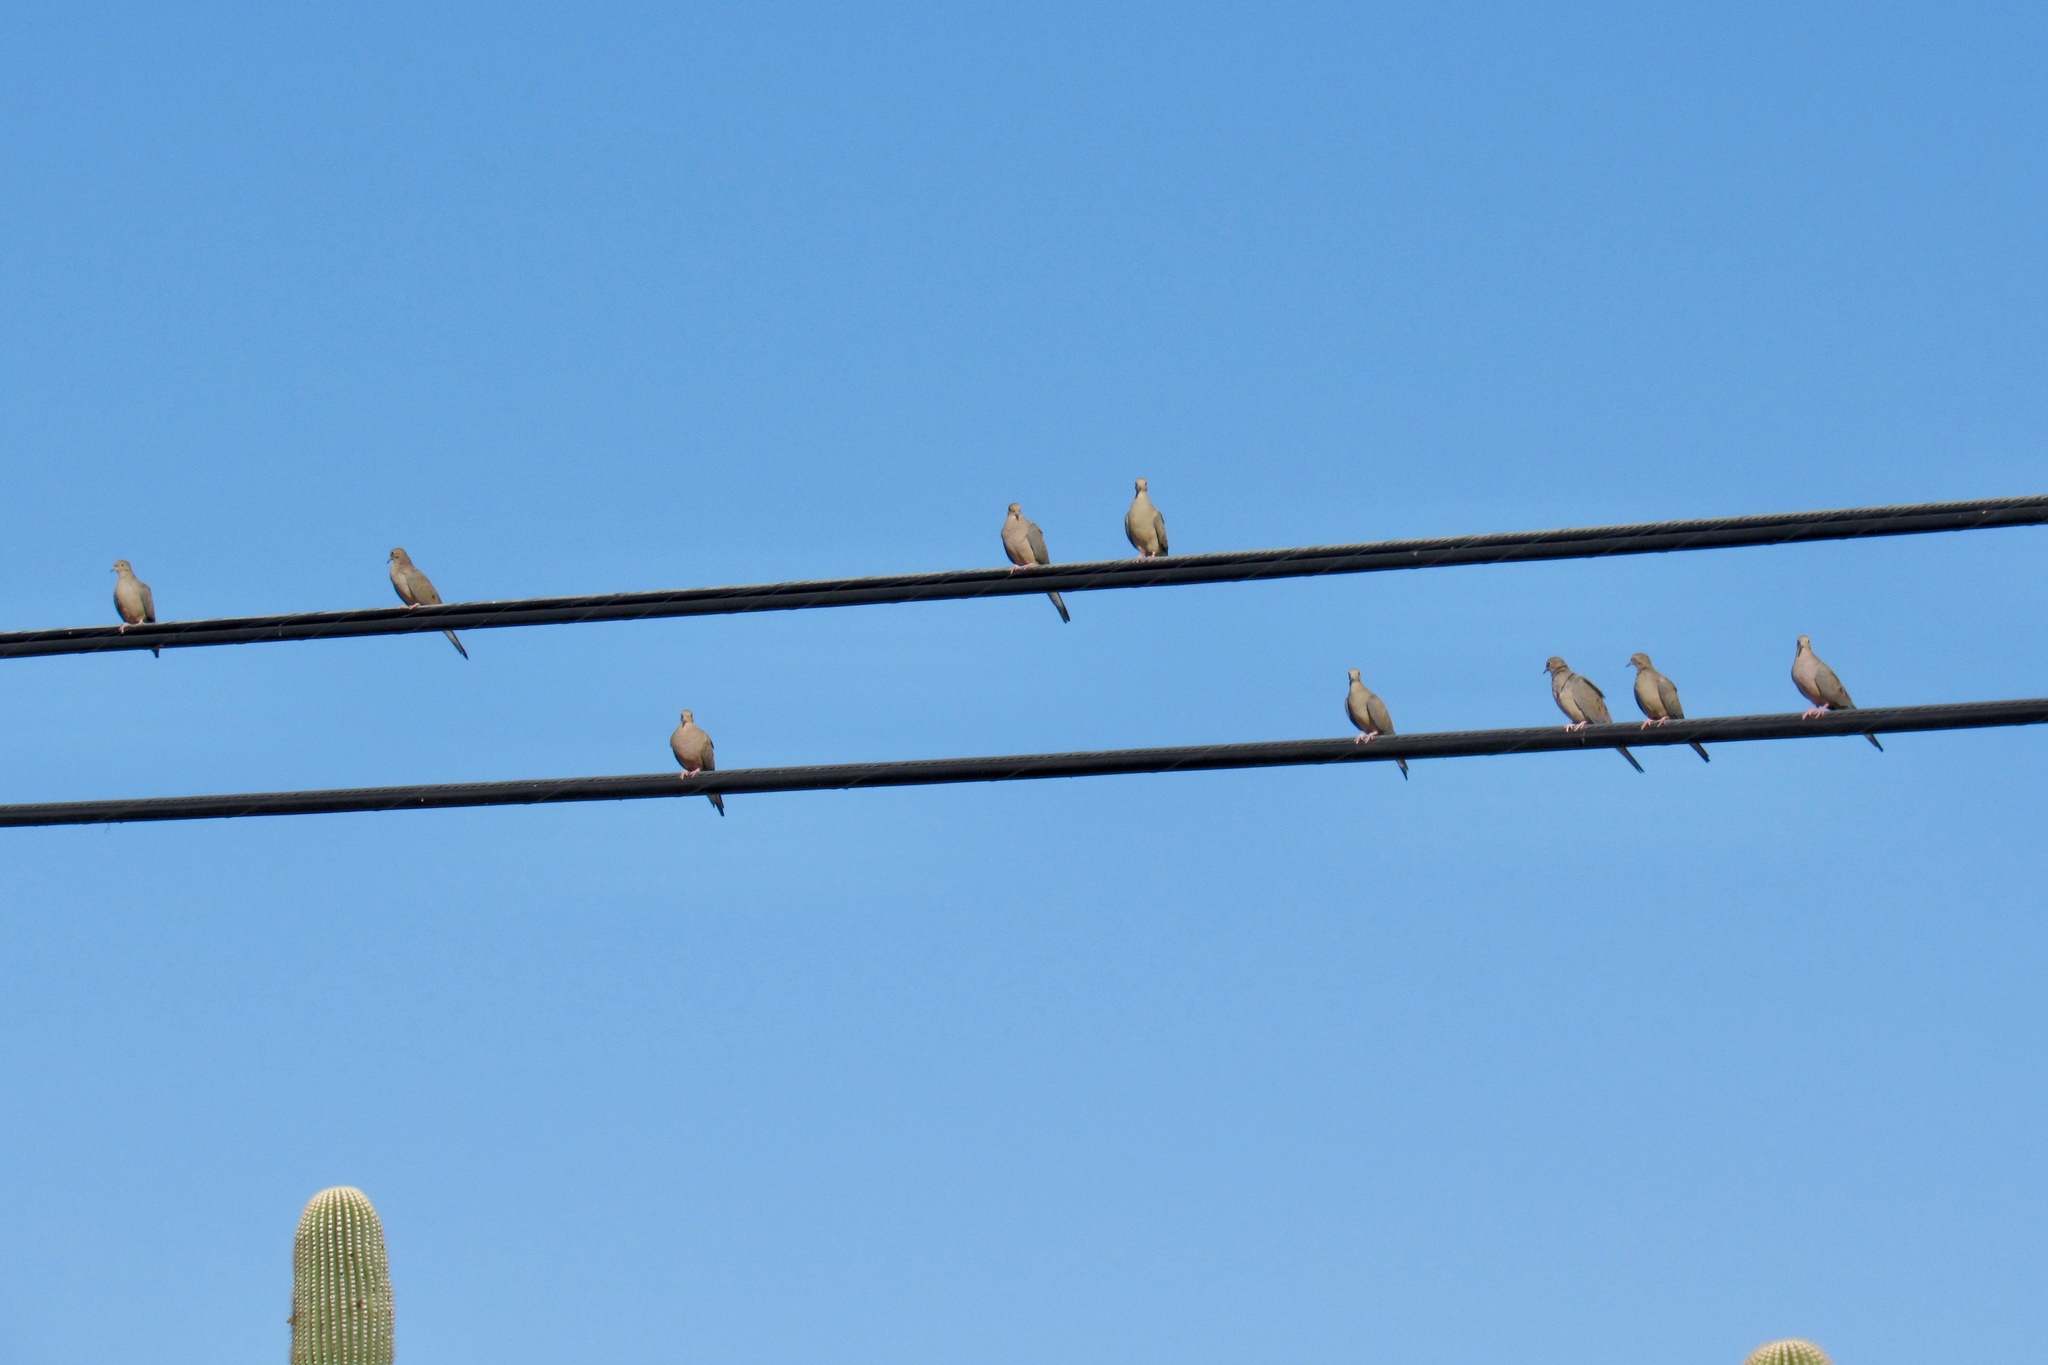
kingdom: Animalia
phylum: Chordata
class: Aves
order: Columbiformes
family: Columbidae
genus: Zenaida
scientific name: Zenaida macroura
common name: Mourning dove
